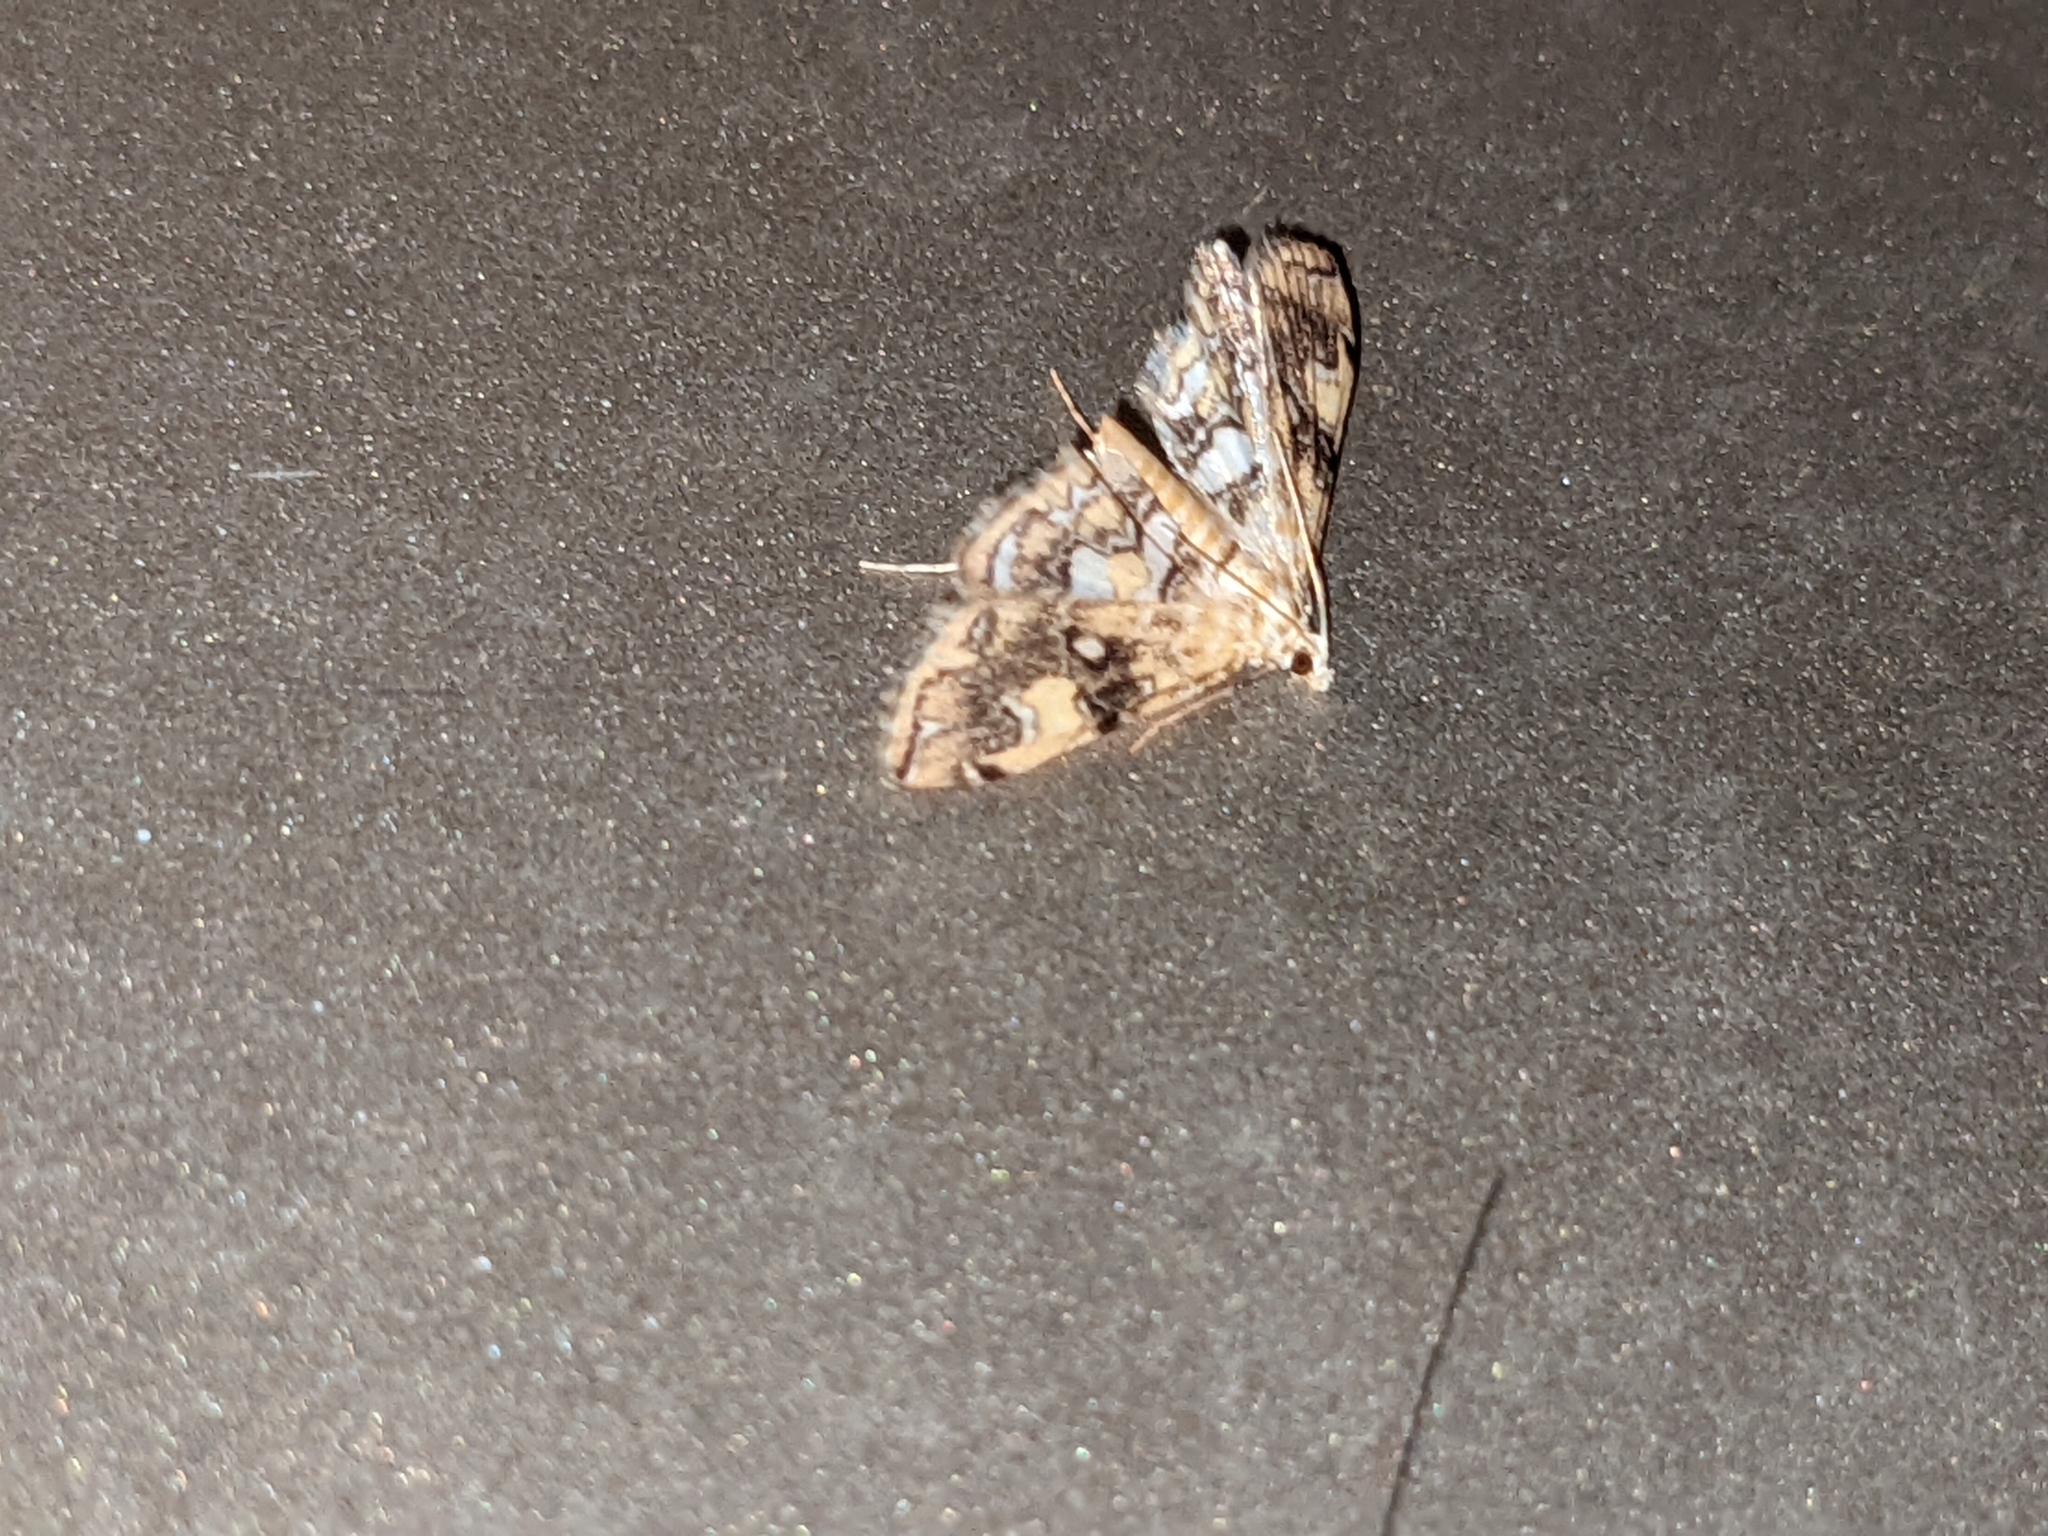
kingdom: Animalia
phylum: Arthropoda
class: Insecta
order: Lepidoptera
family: Crambidae
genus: Elophila
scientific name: Elophila faulalis
